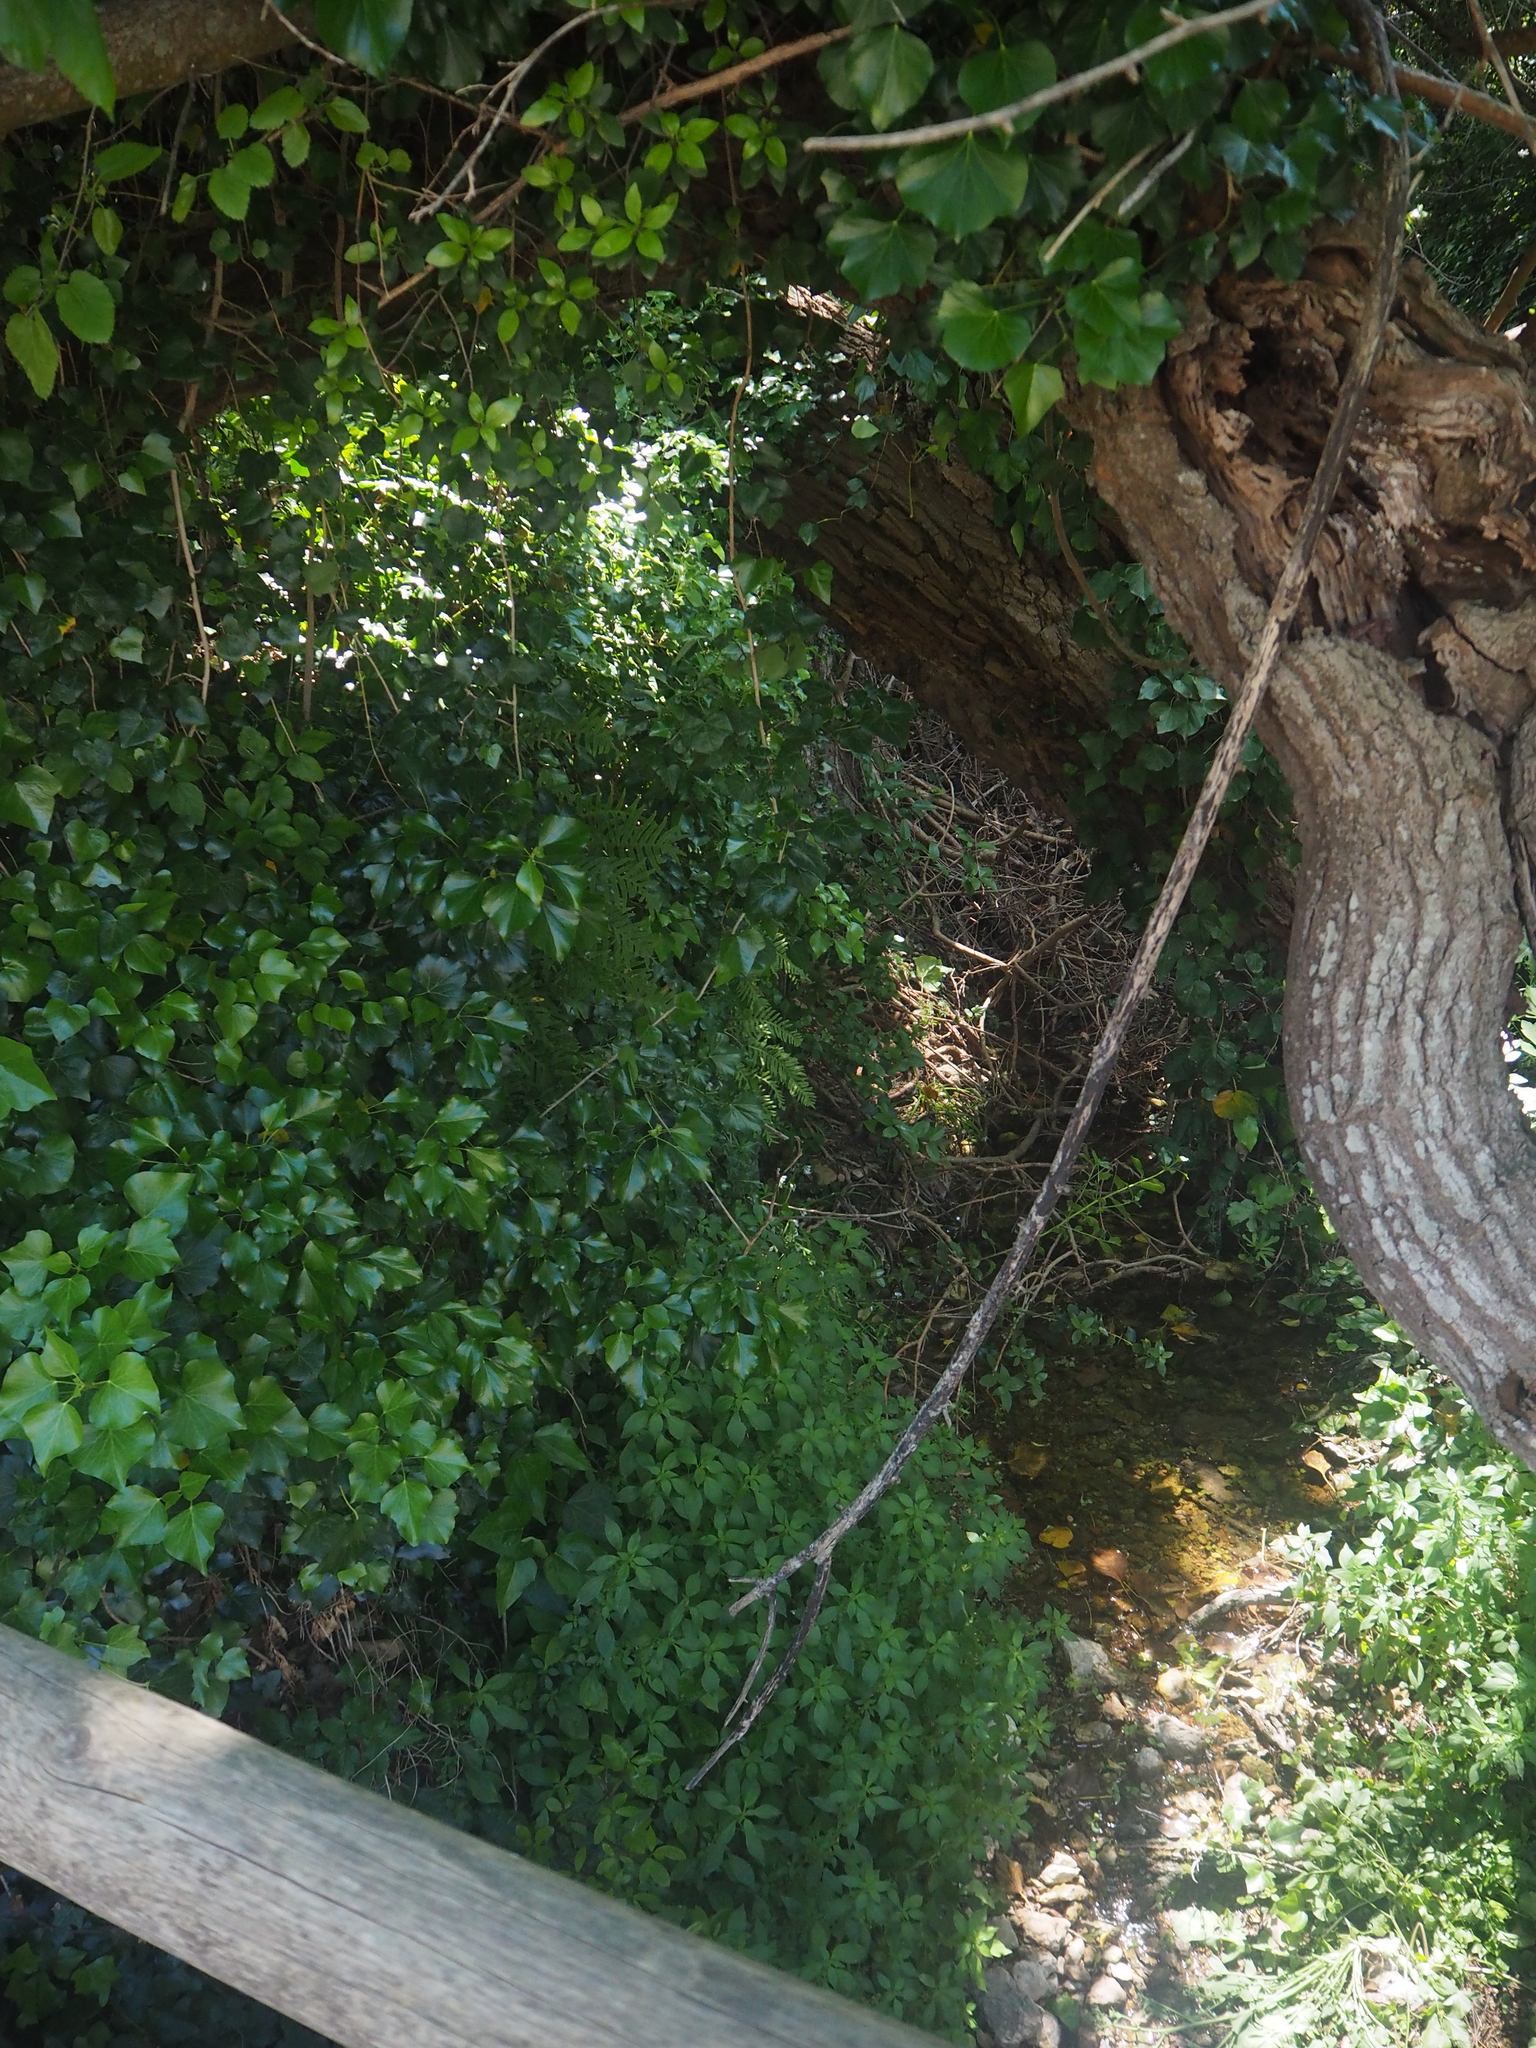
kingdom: Plantae
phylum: Tracheophyta
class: Magnoliopsida
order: Apiales
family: Araliaceae
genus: Hedera
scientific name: Hedera helix
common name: Ivy
